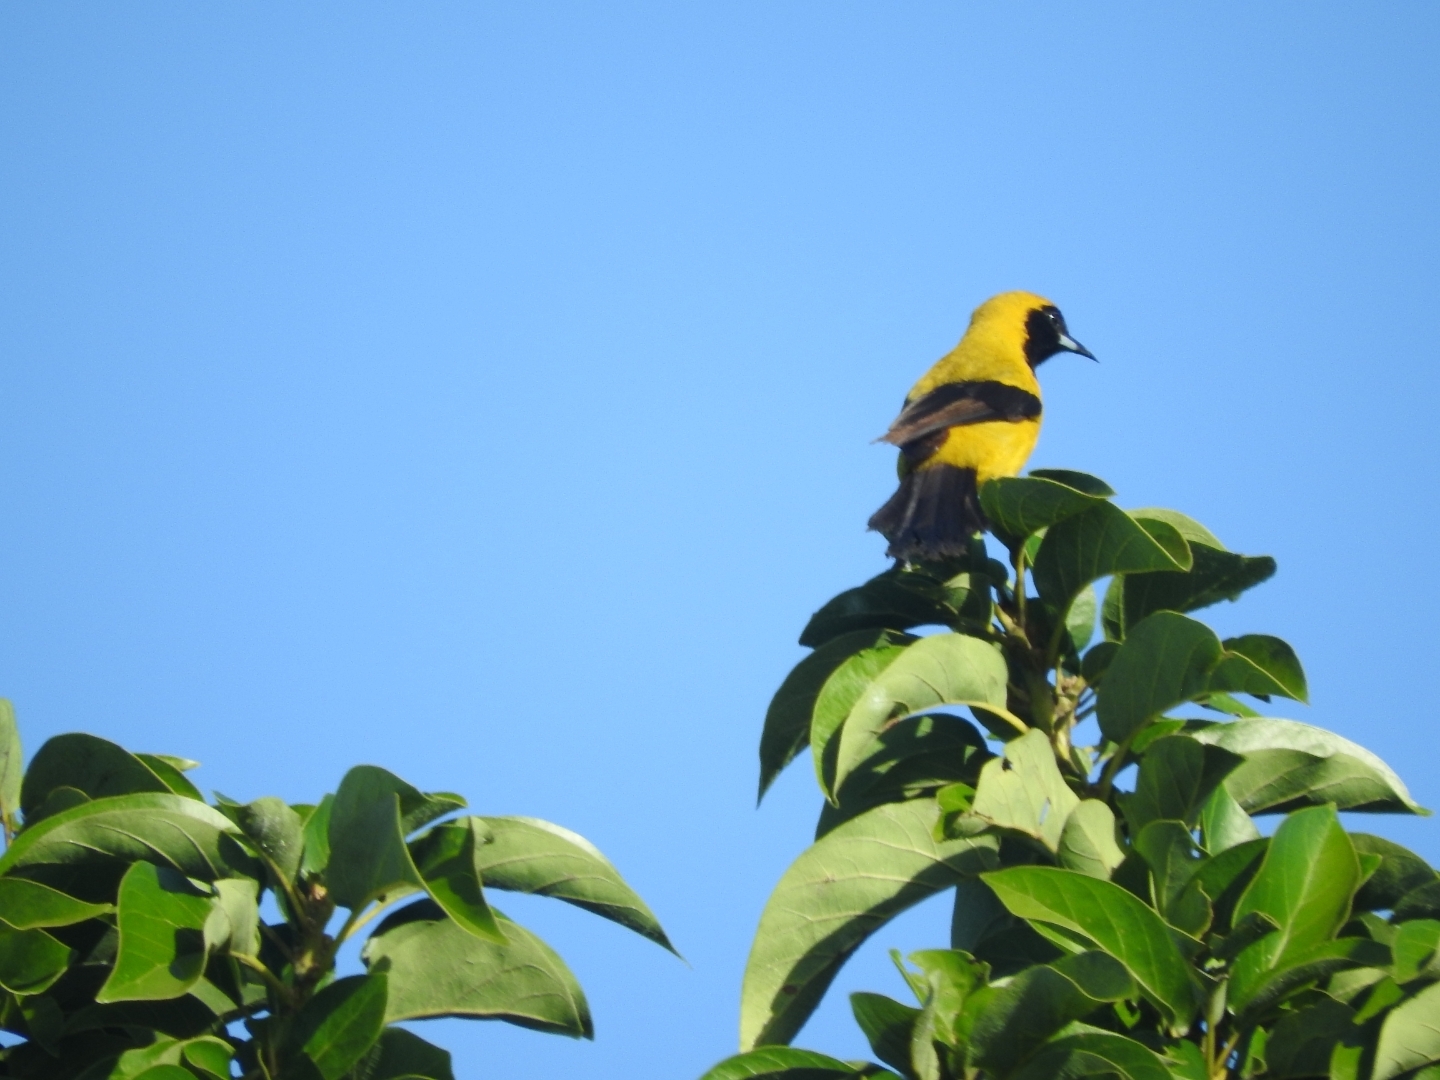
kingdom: Animalia
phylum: Chordata
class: Aves
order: Passeriformes
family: Icteridae
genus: Icterus
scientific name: Icterus prosthemelas
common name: Black-cowled oriole
